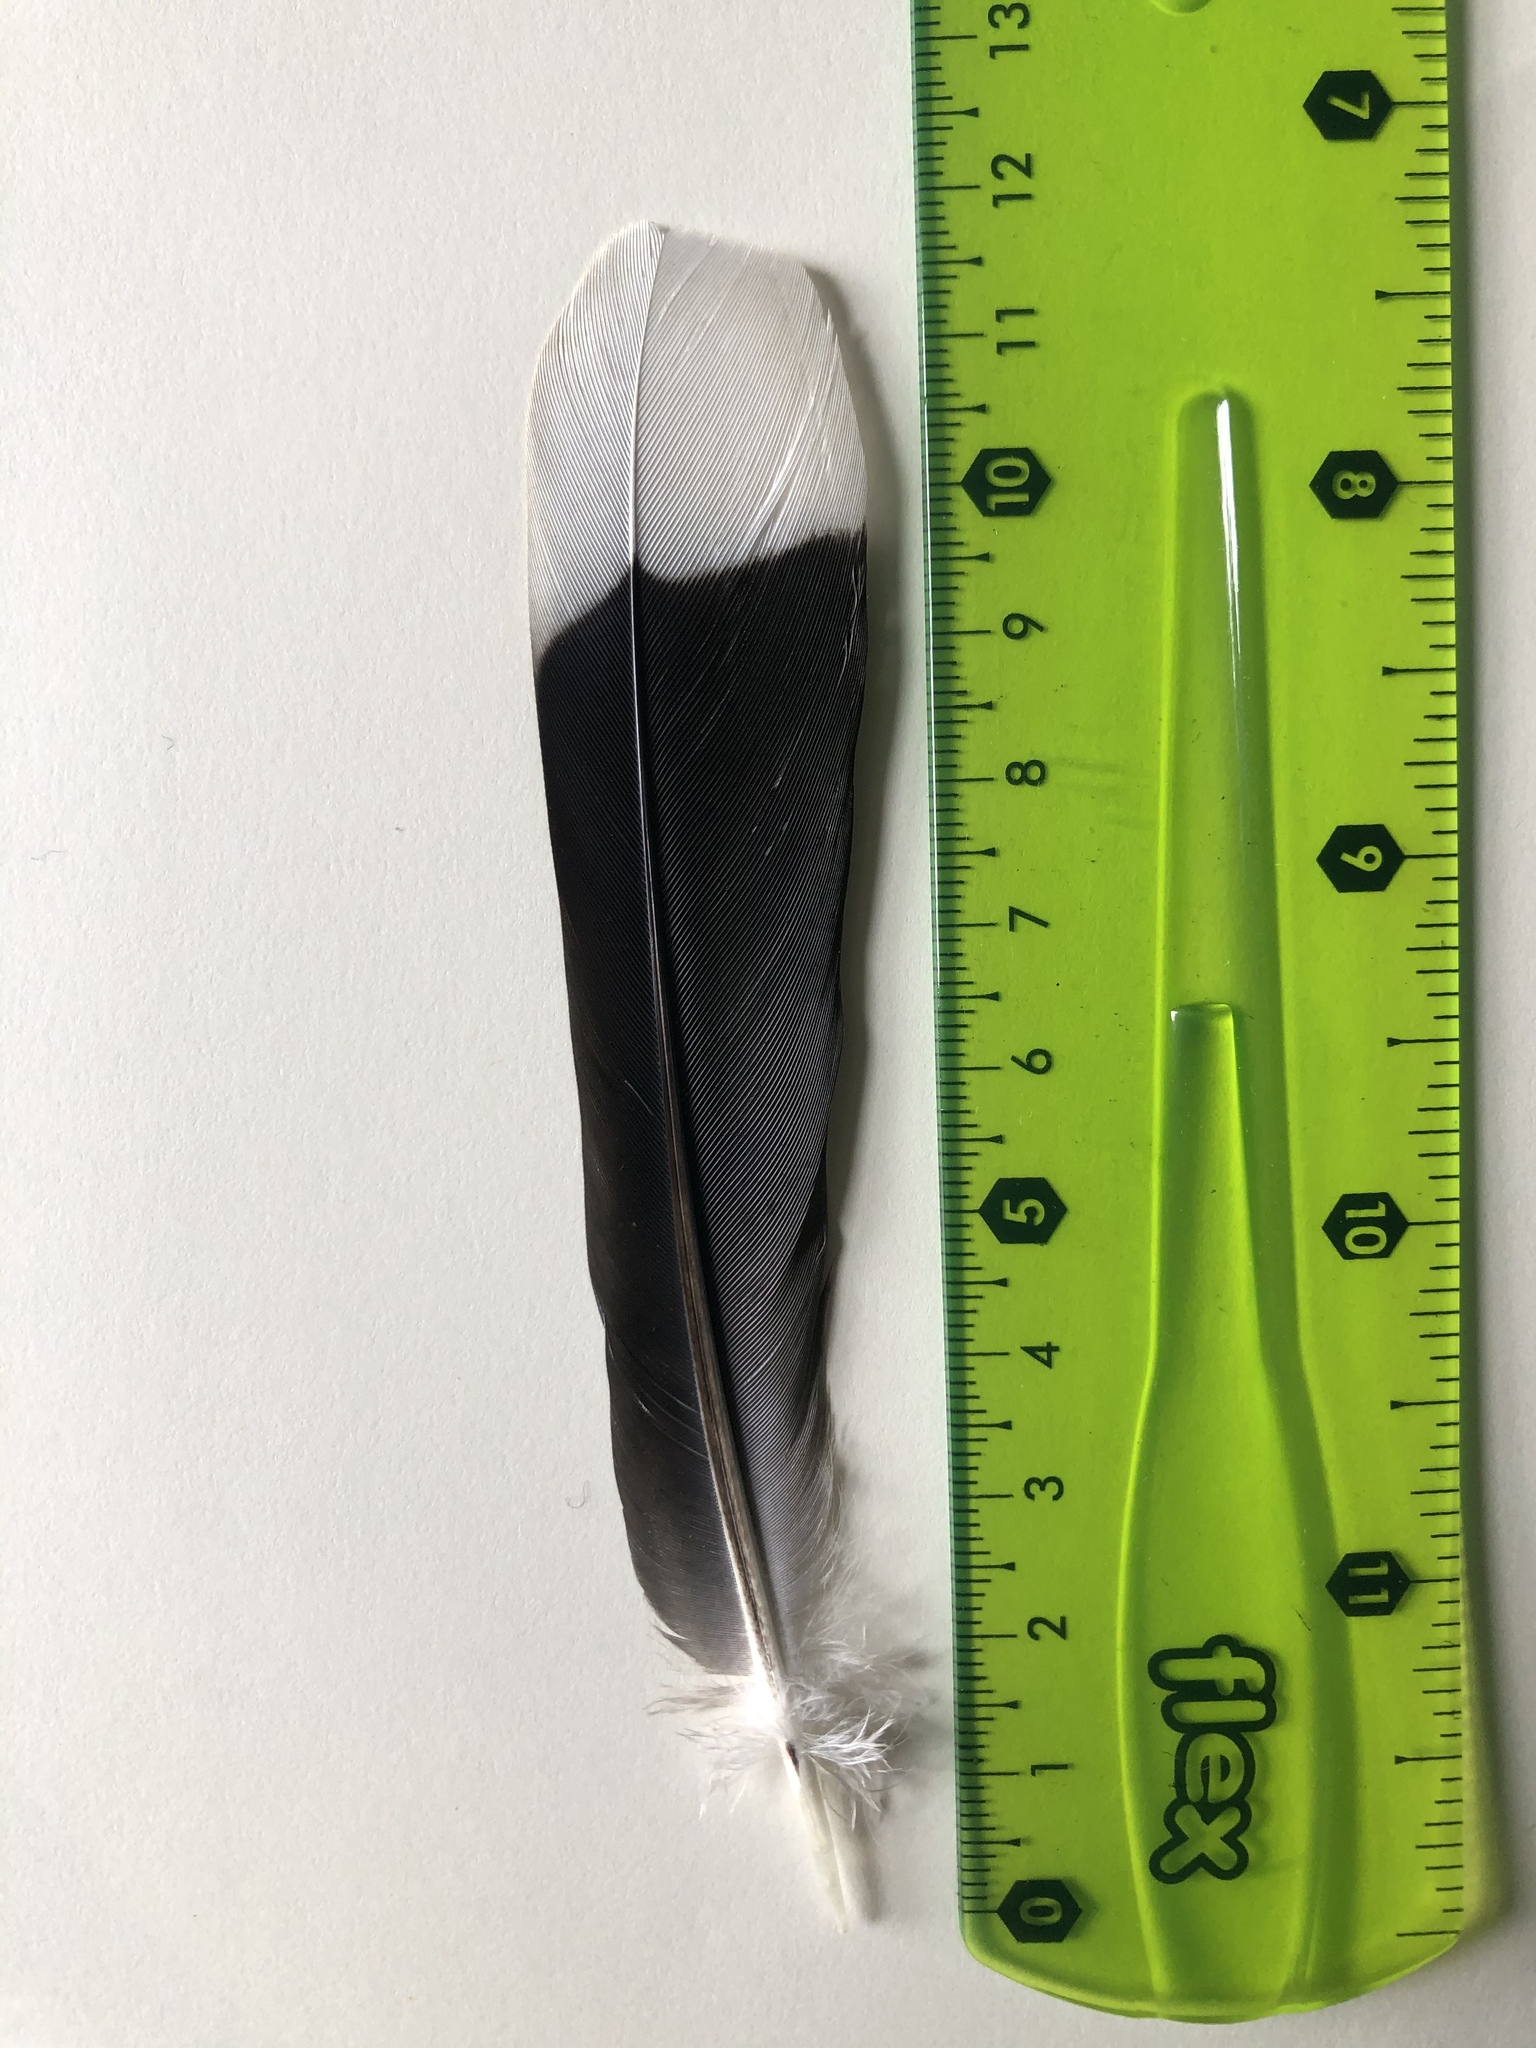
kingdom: Animalia
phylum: Chordata
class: Aves
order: Columbiformes
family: Columbidae
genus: Zenaida
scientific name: Zenaida asiatica
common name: White-winged dove
